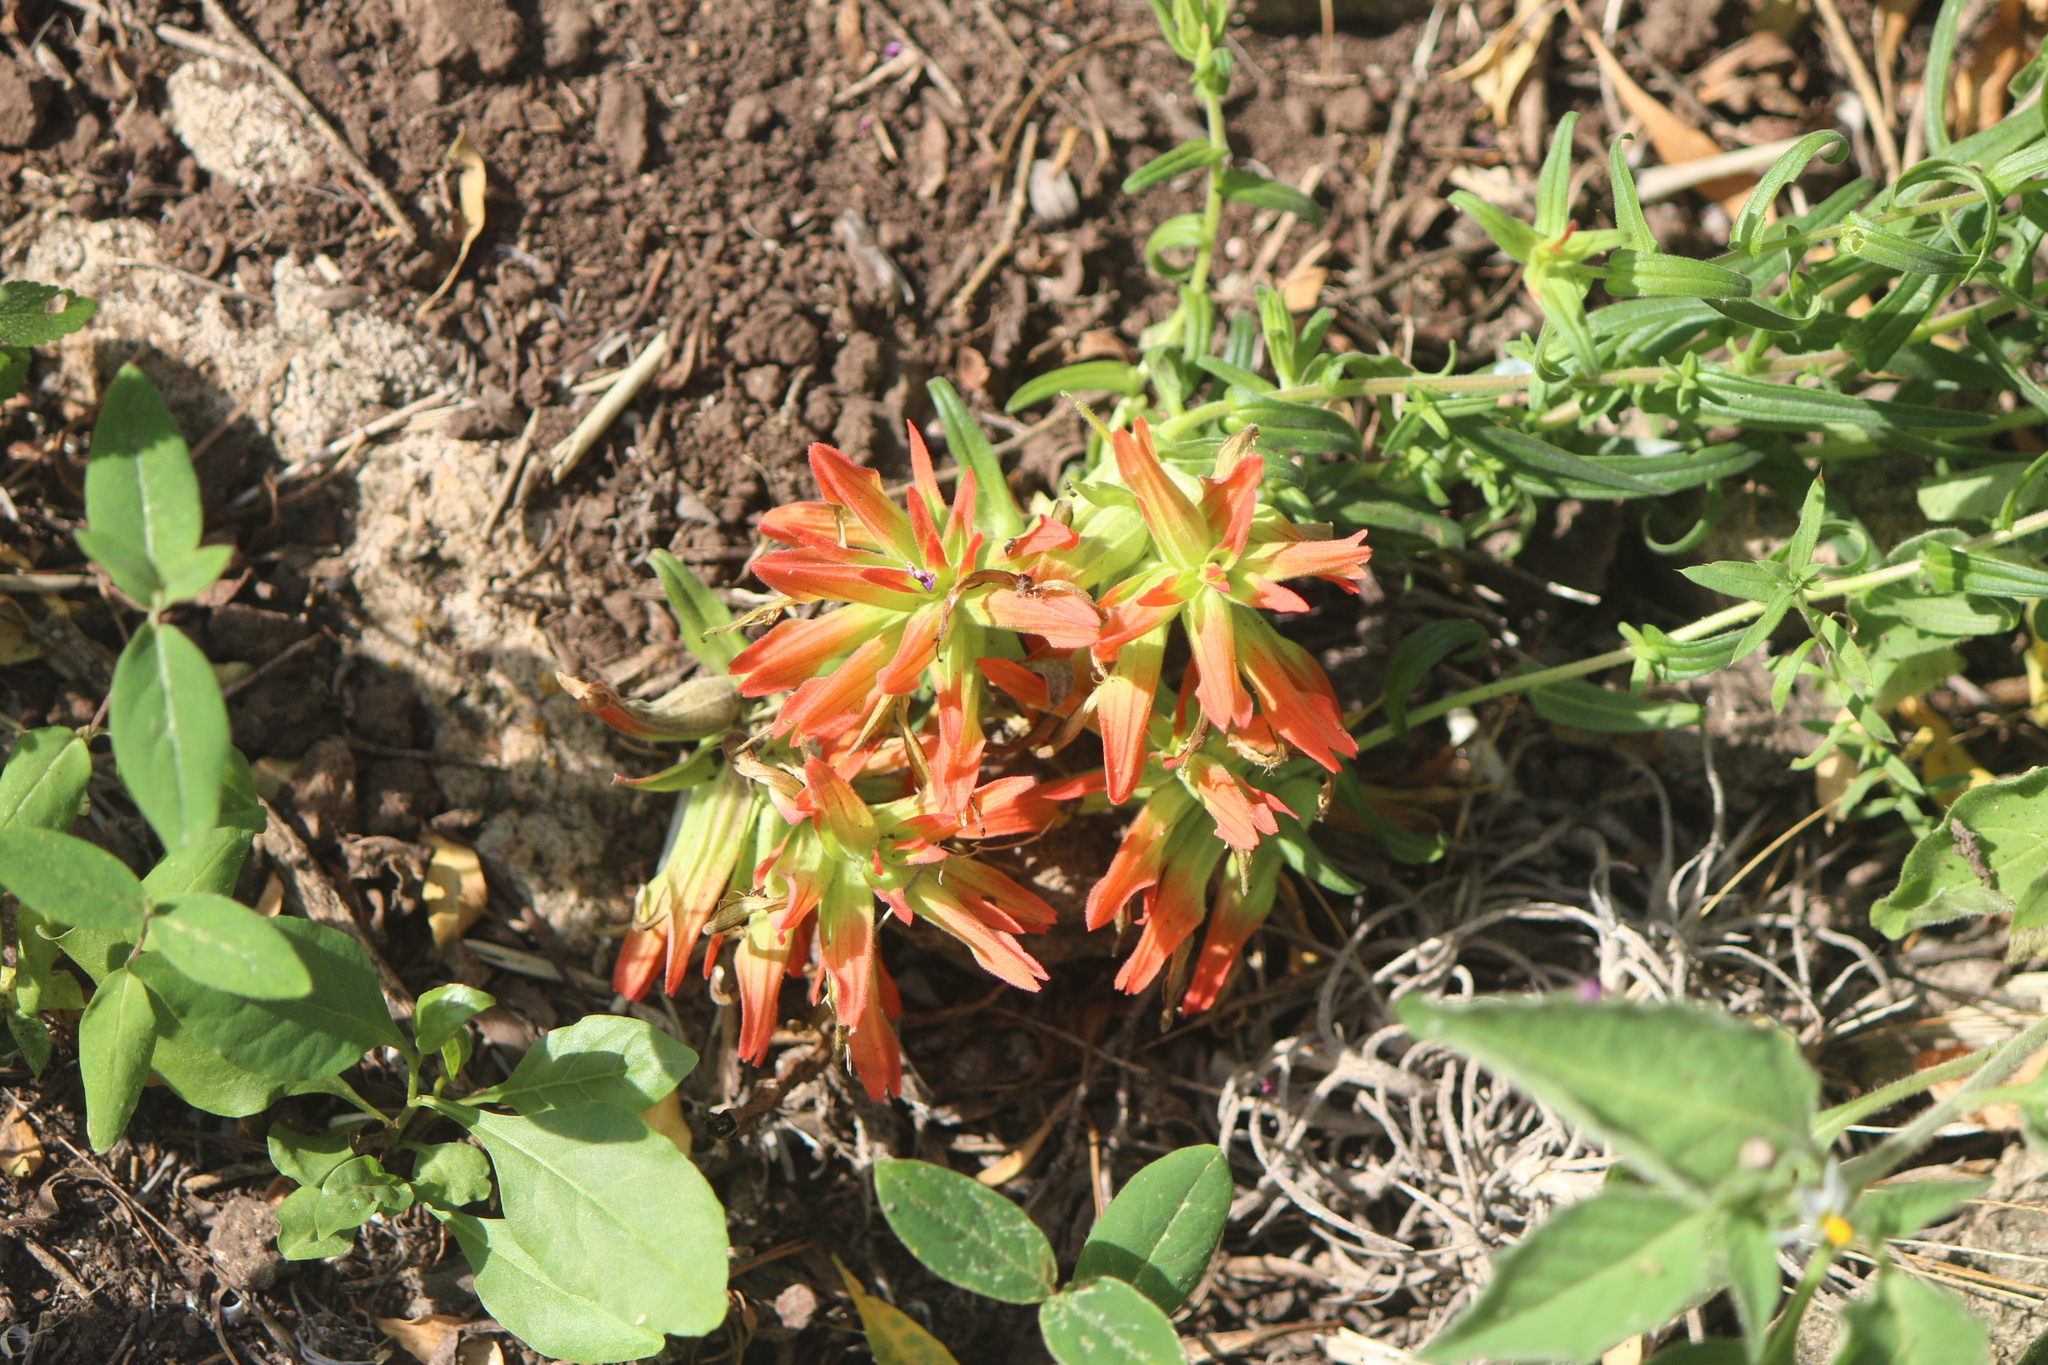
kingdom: Plantae
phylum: Tracheophyta
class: Magnoliopsida
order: Lamiales
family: Orobanchaceae
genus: Castilleja
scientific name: Castilleja tenuiflora
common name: Santa catalina indian paintbrush
